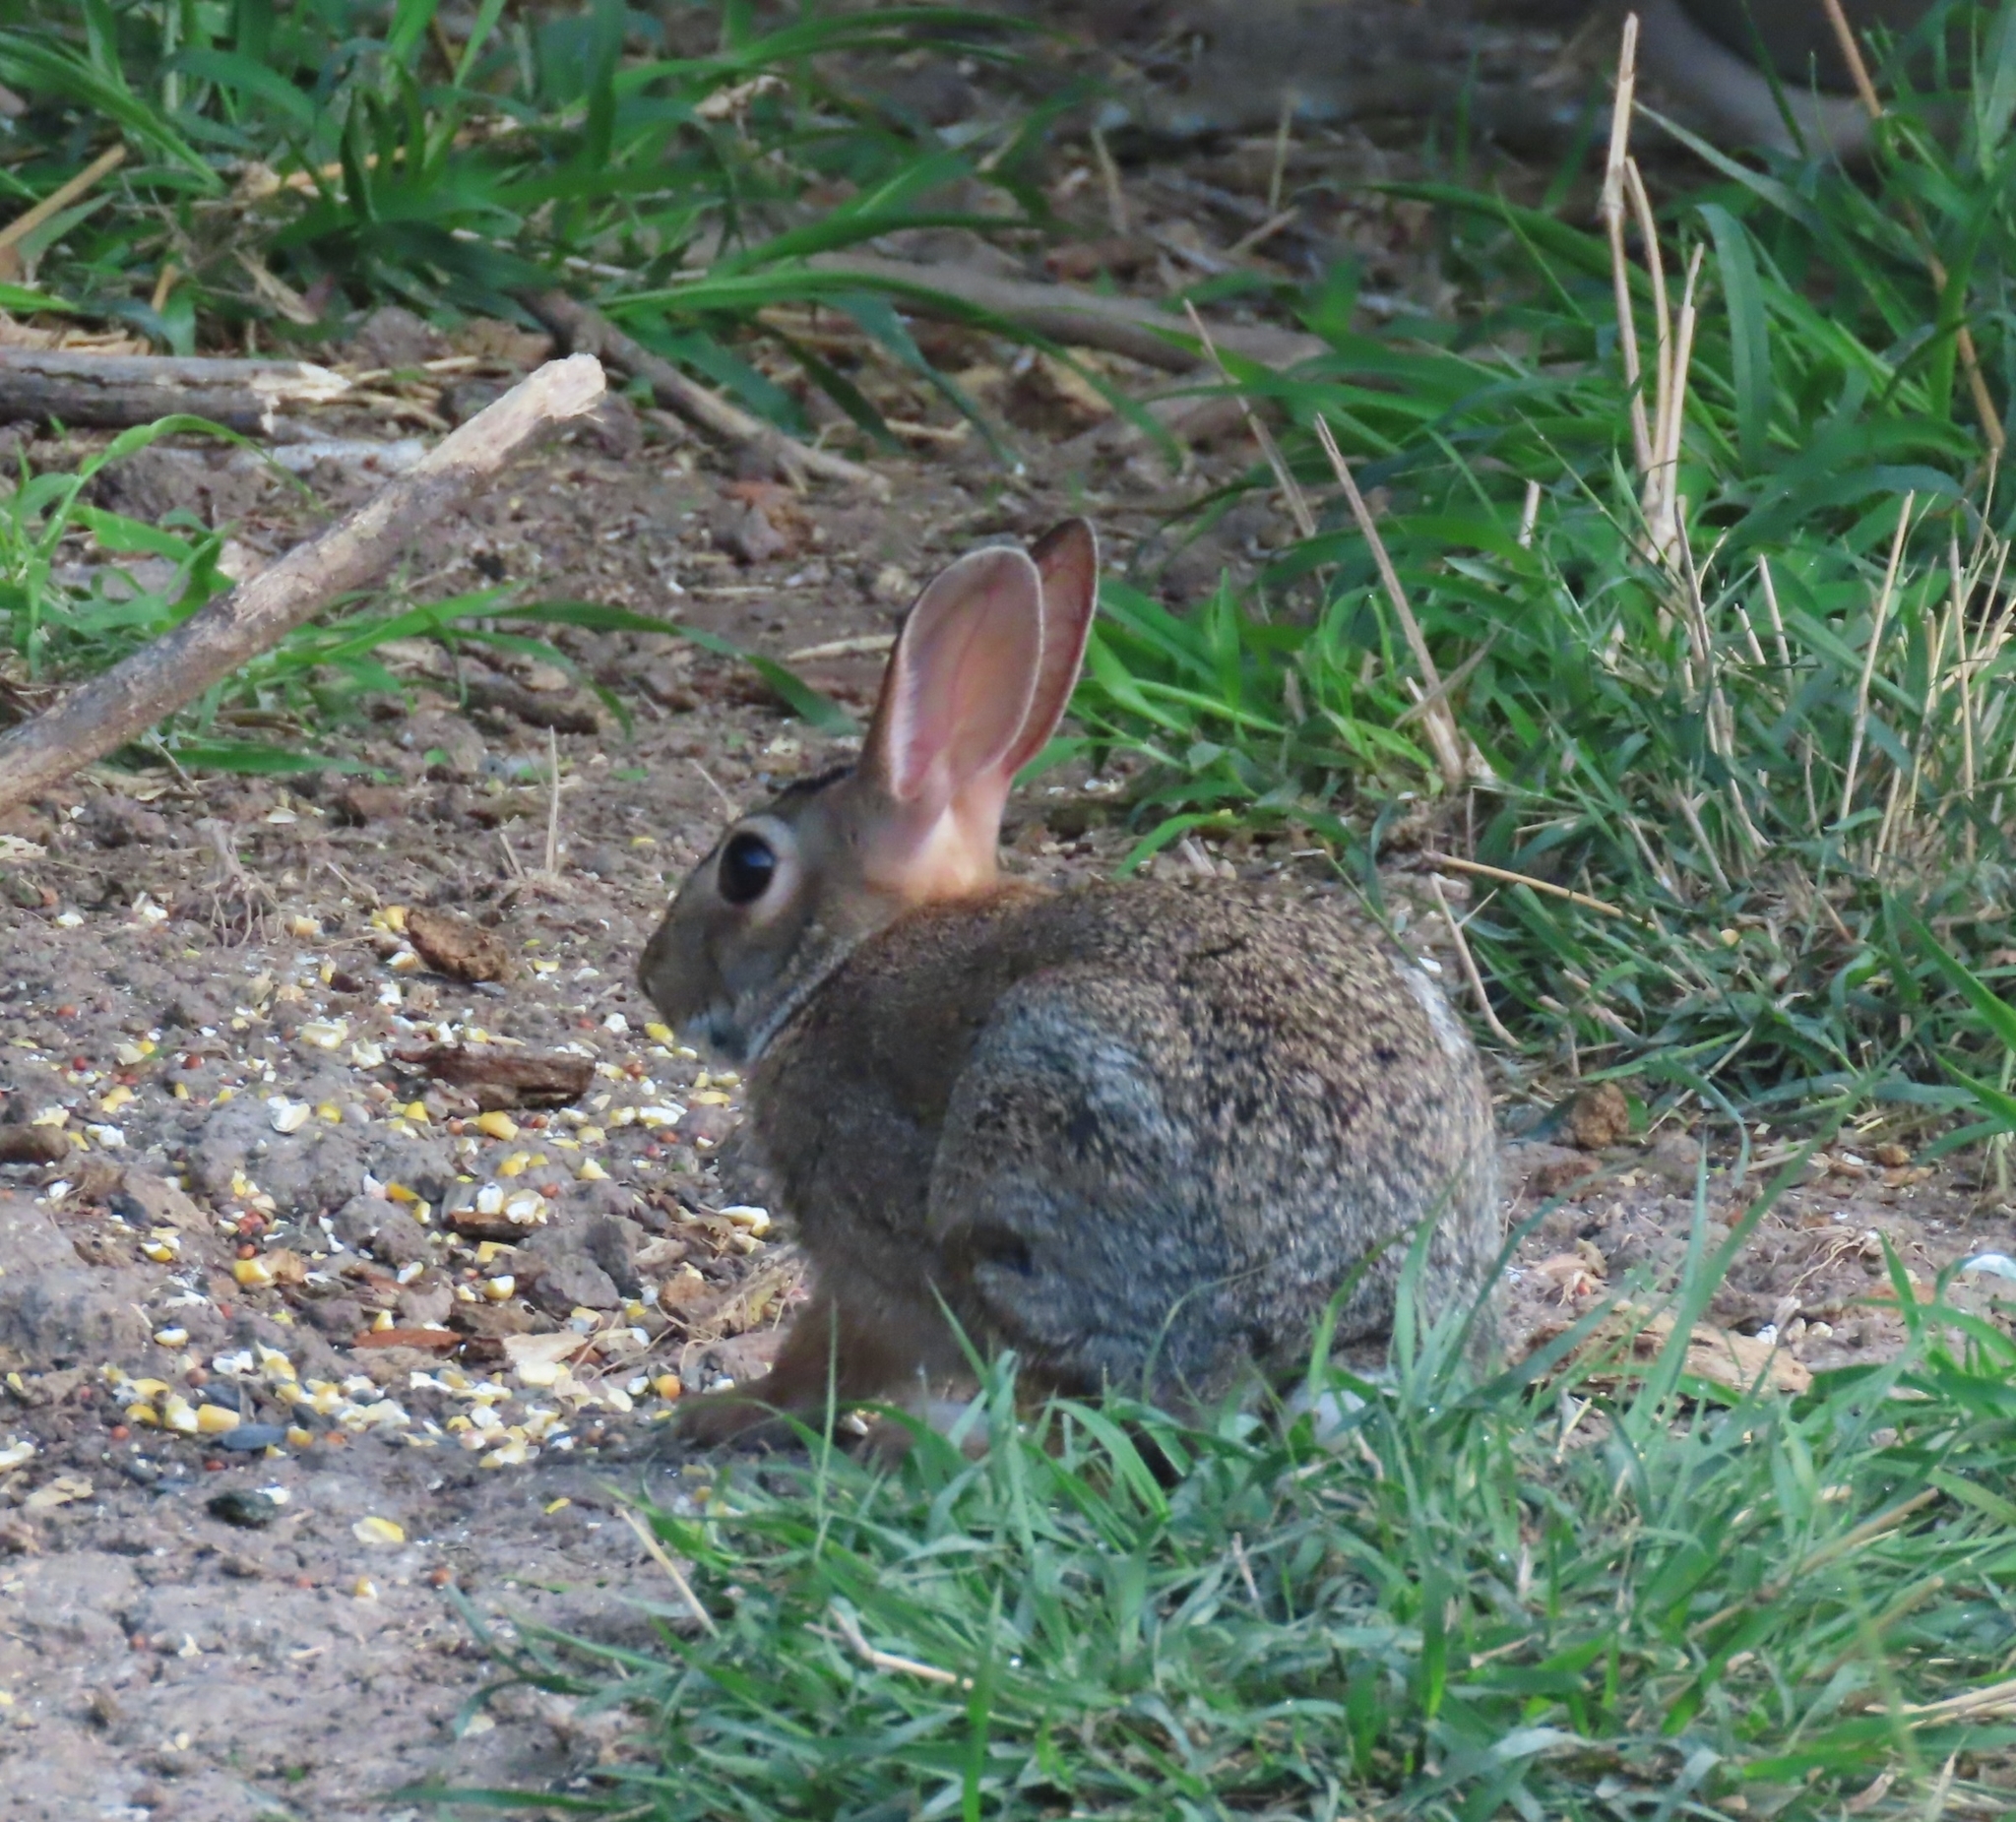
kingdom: Animalia
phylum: Chordata
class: Mammalia
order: Lagomorpha
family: Leporidae
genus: Sylvilagus
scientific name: Sylvilagus floridanus
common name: Eastern cottontail
